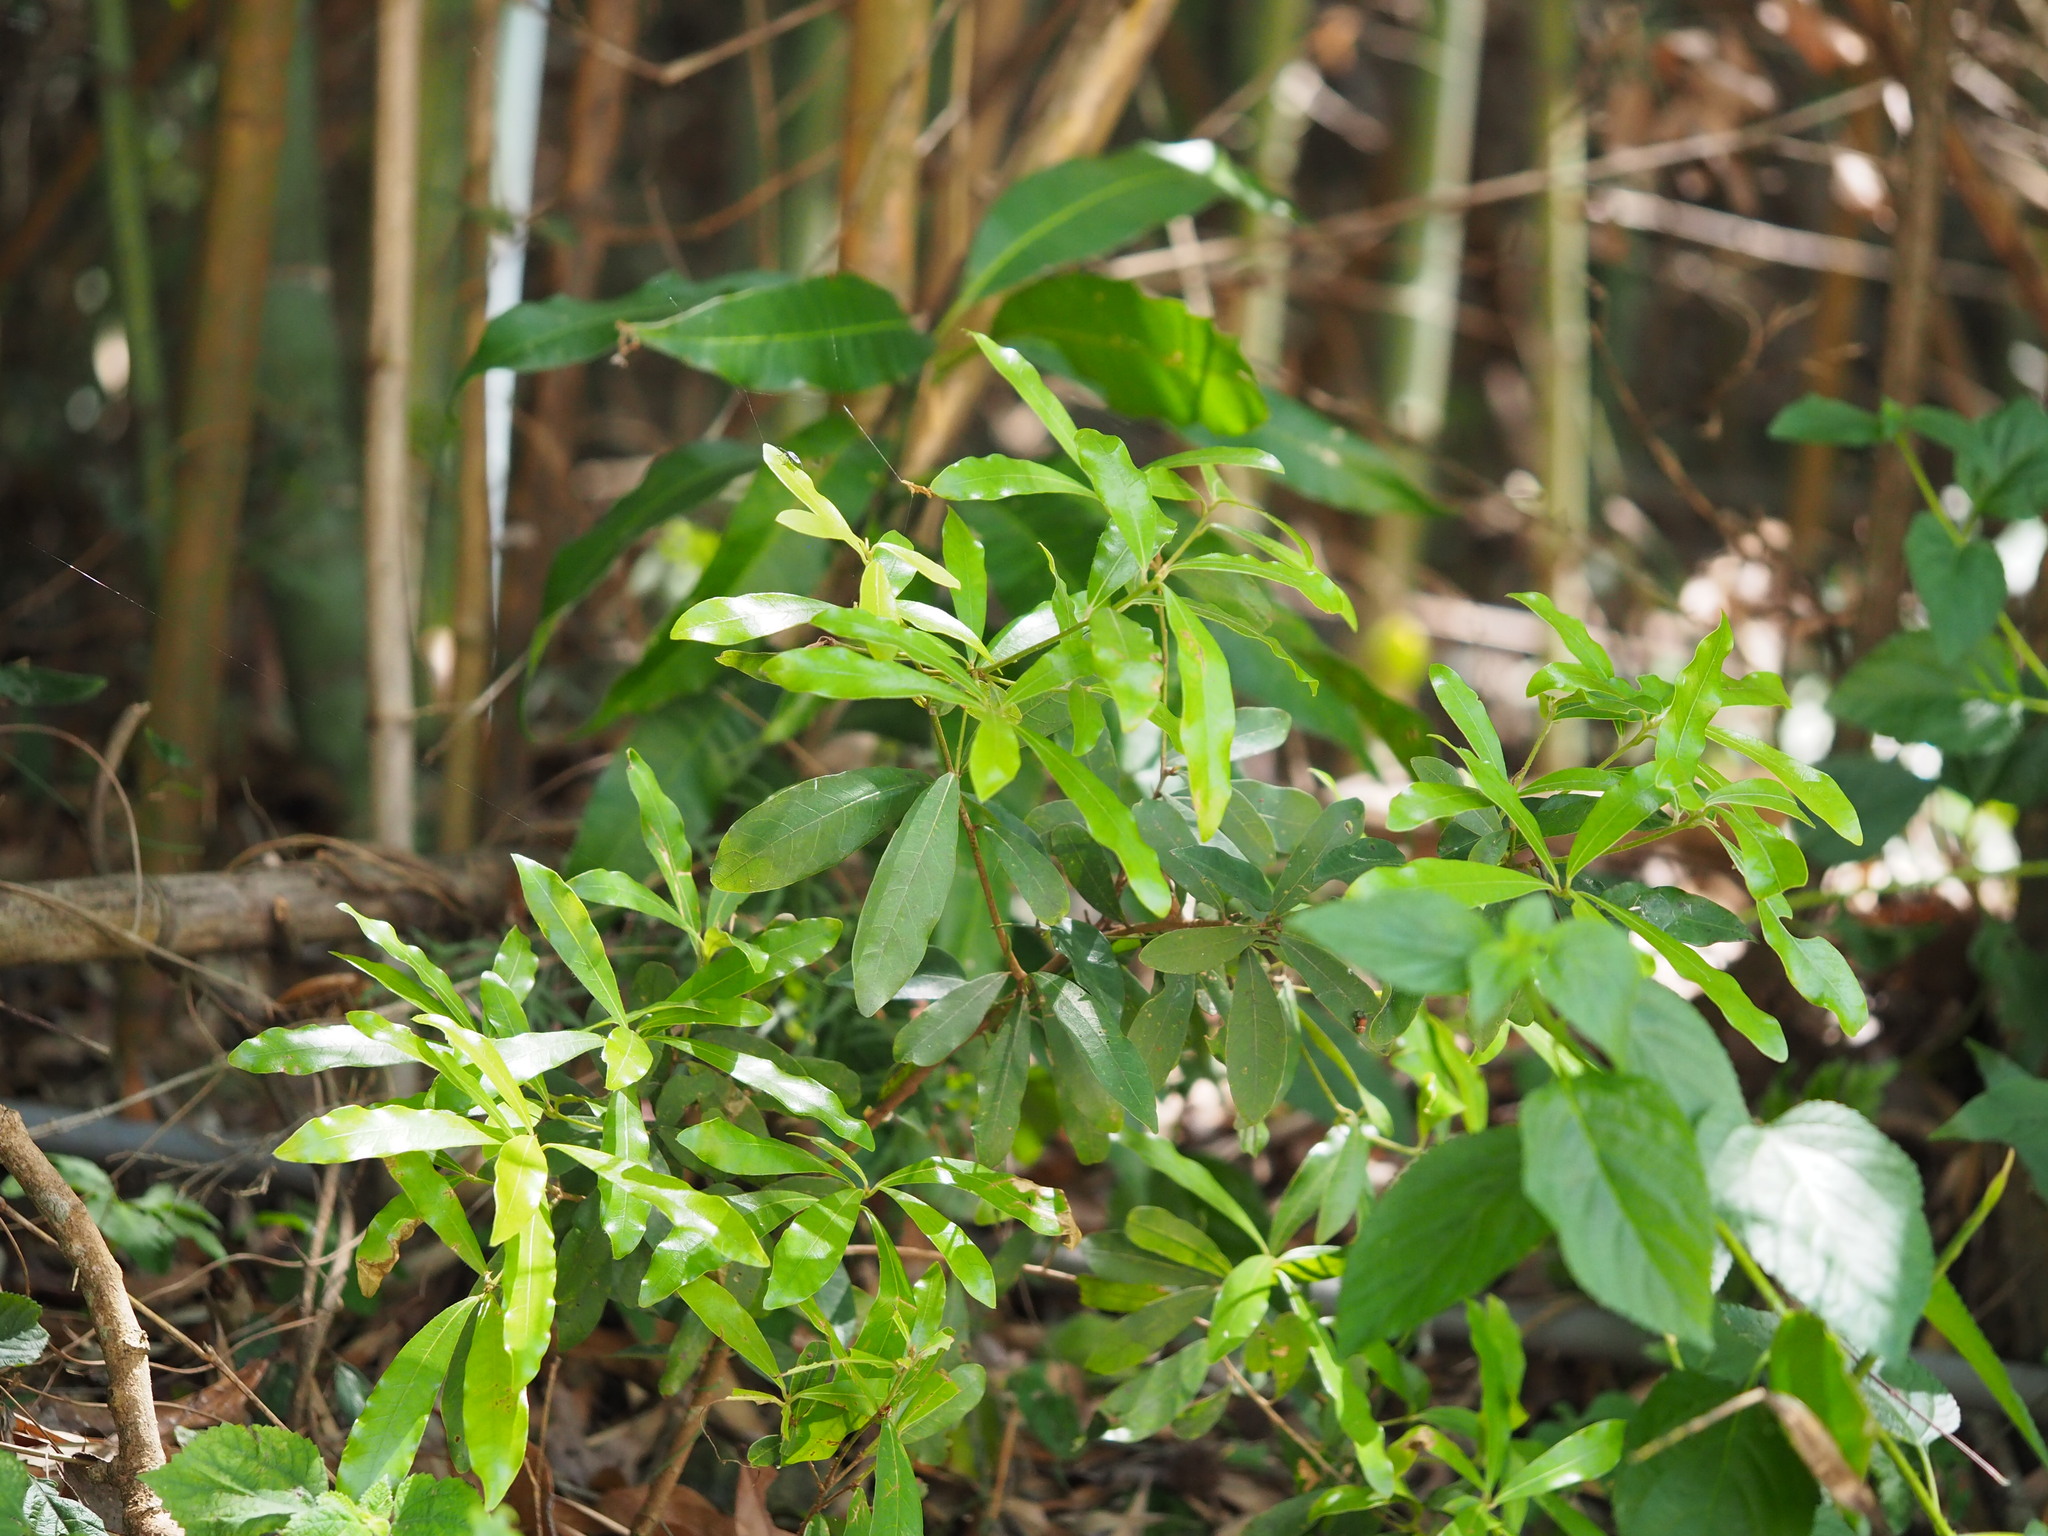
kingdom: Plantae
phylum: Tracheophyta
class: Magnoliopsida
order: Laurales
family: Lauraceae
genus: Litsea
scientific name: Litsea hypophaea
